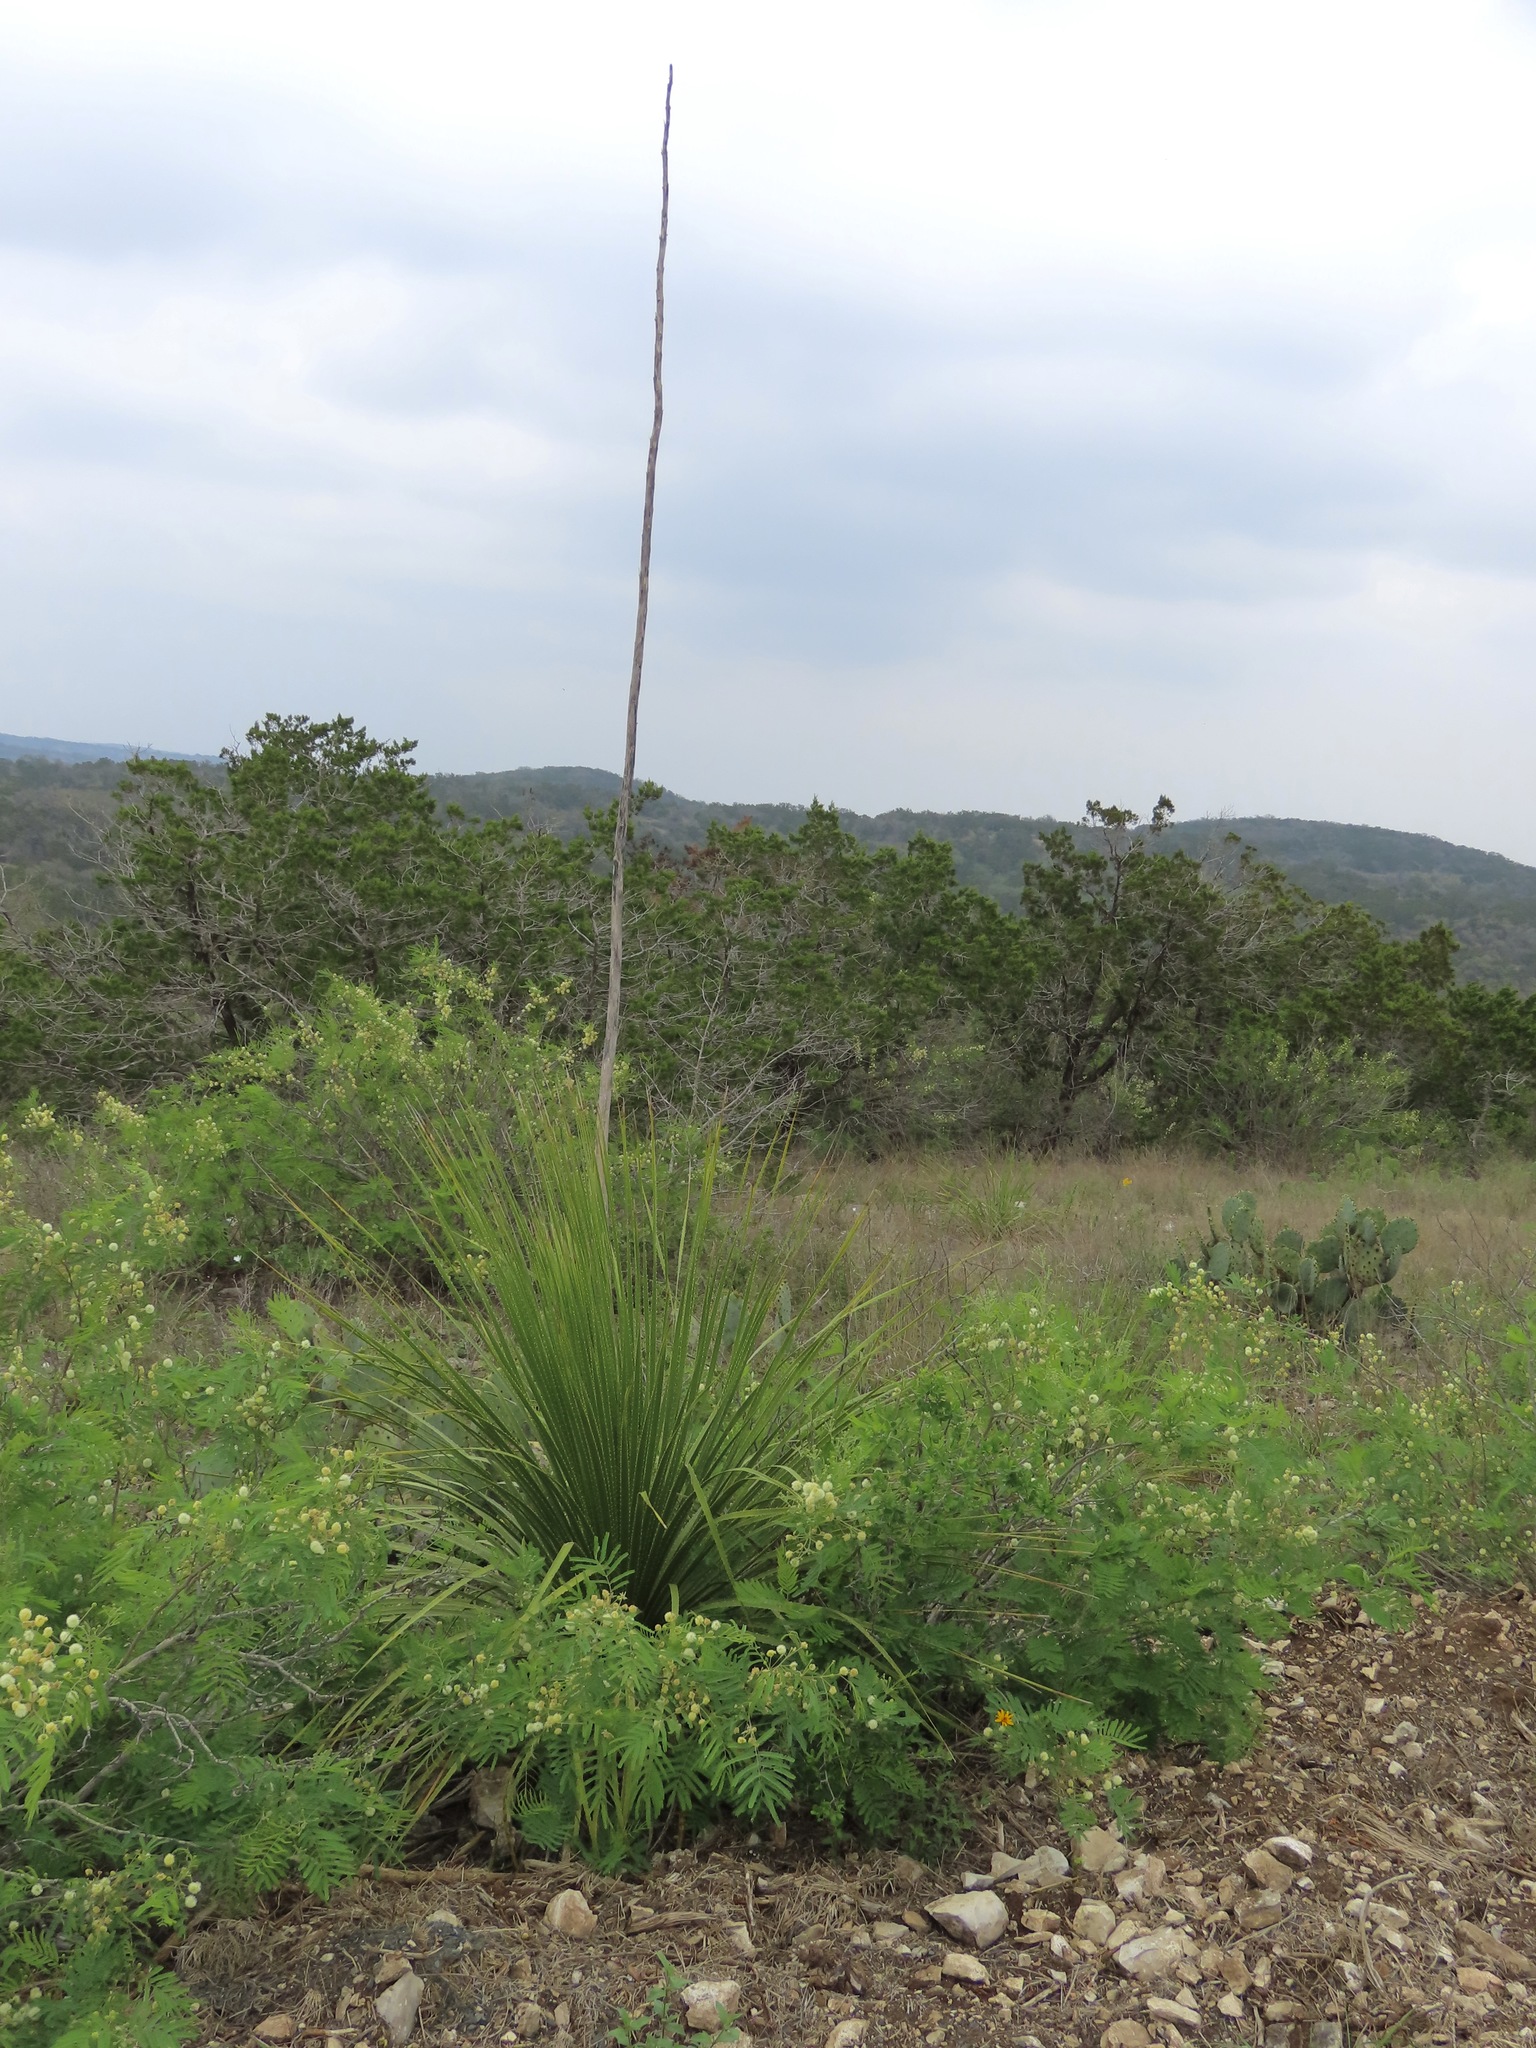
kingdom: Plantae
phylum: Tracheophyta
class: Liliopsida
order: Asparagales
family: Asparagaceae
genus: Dasylirion
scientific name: Dasylirion texanum
